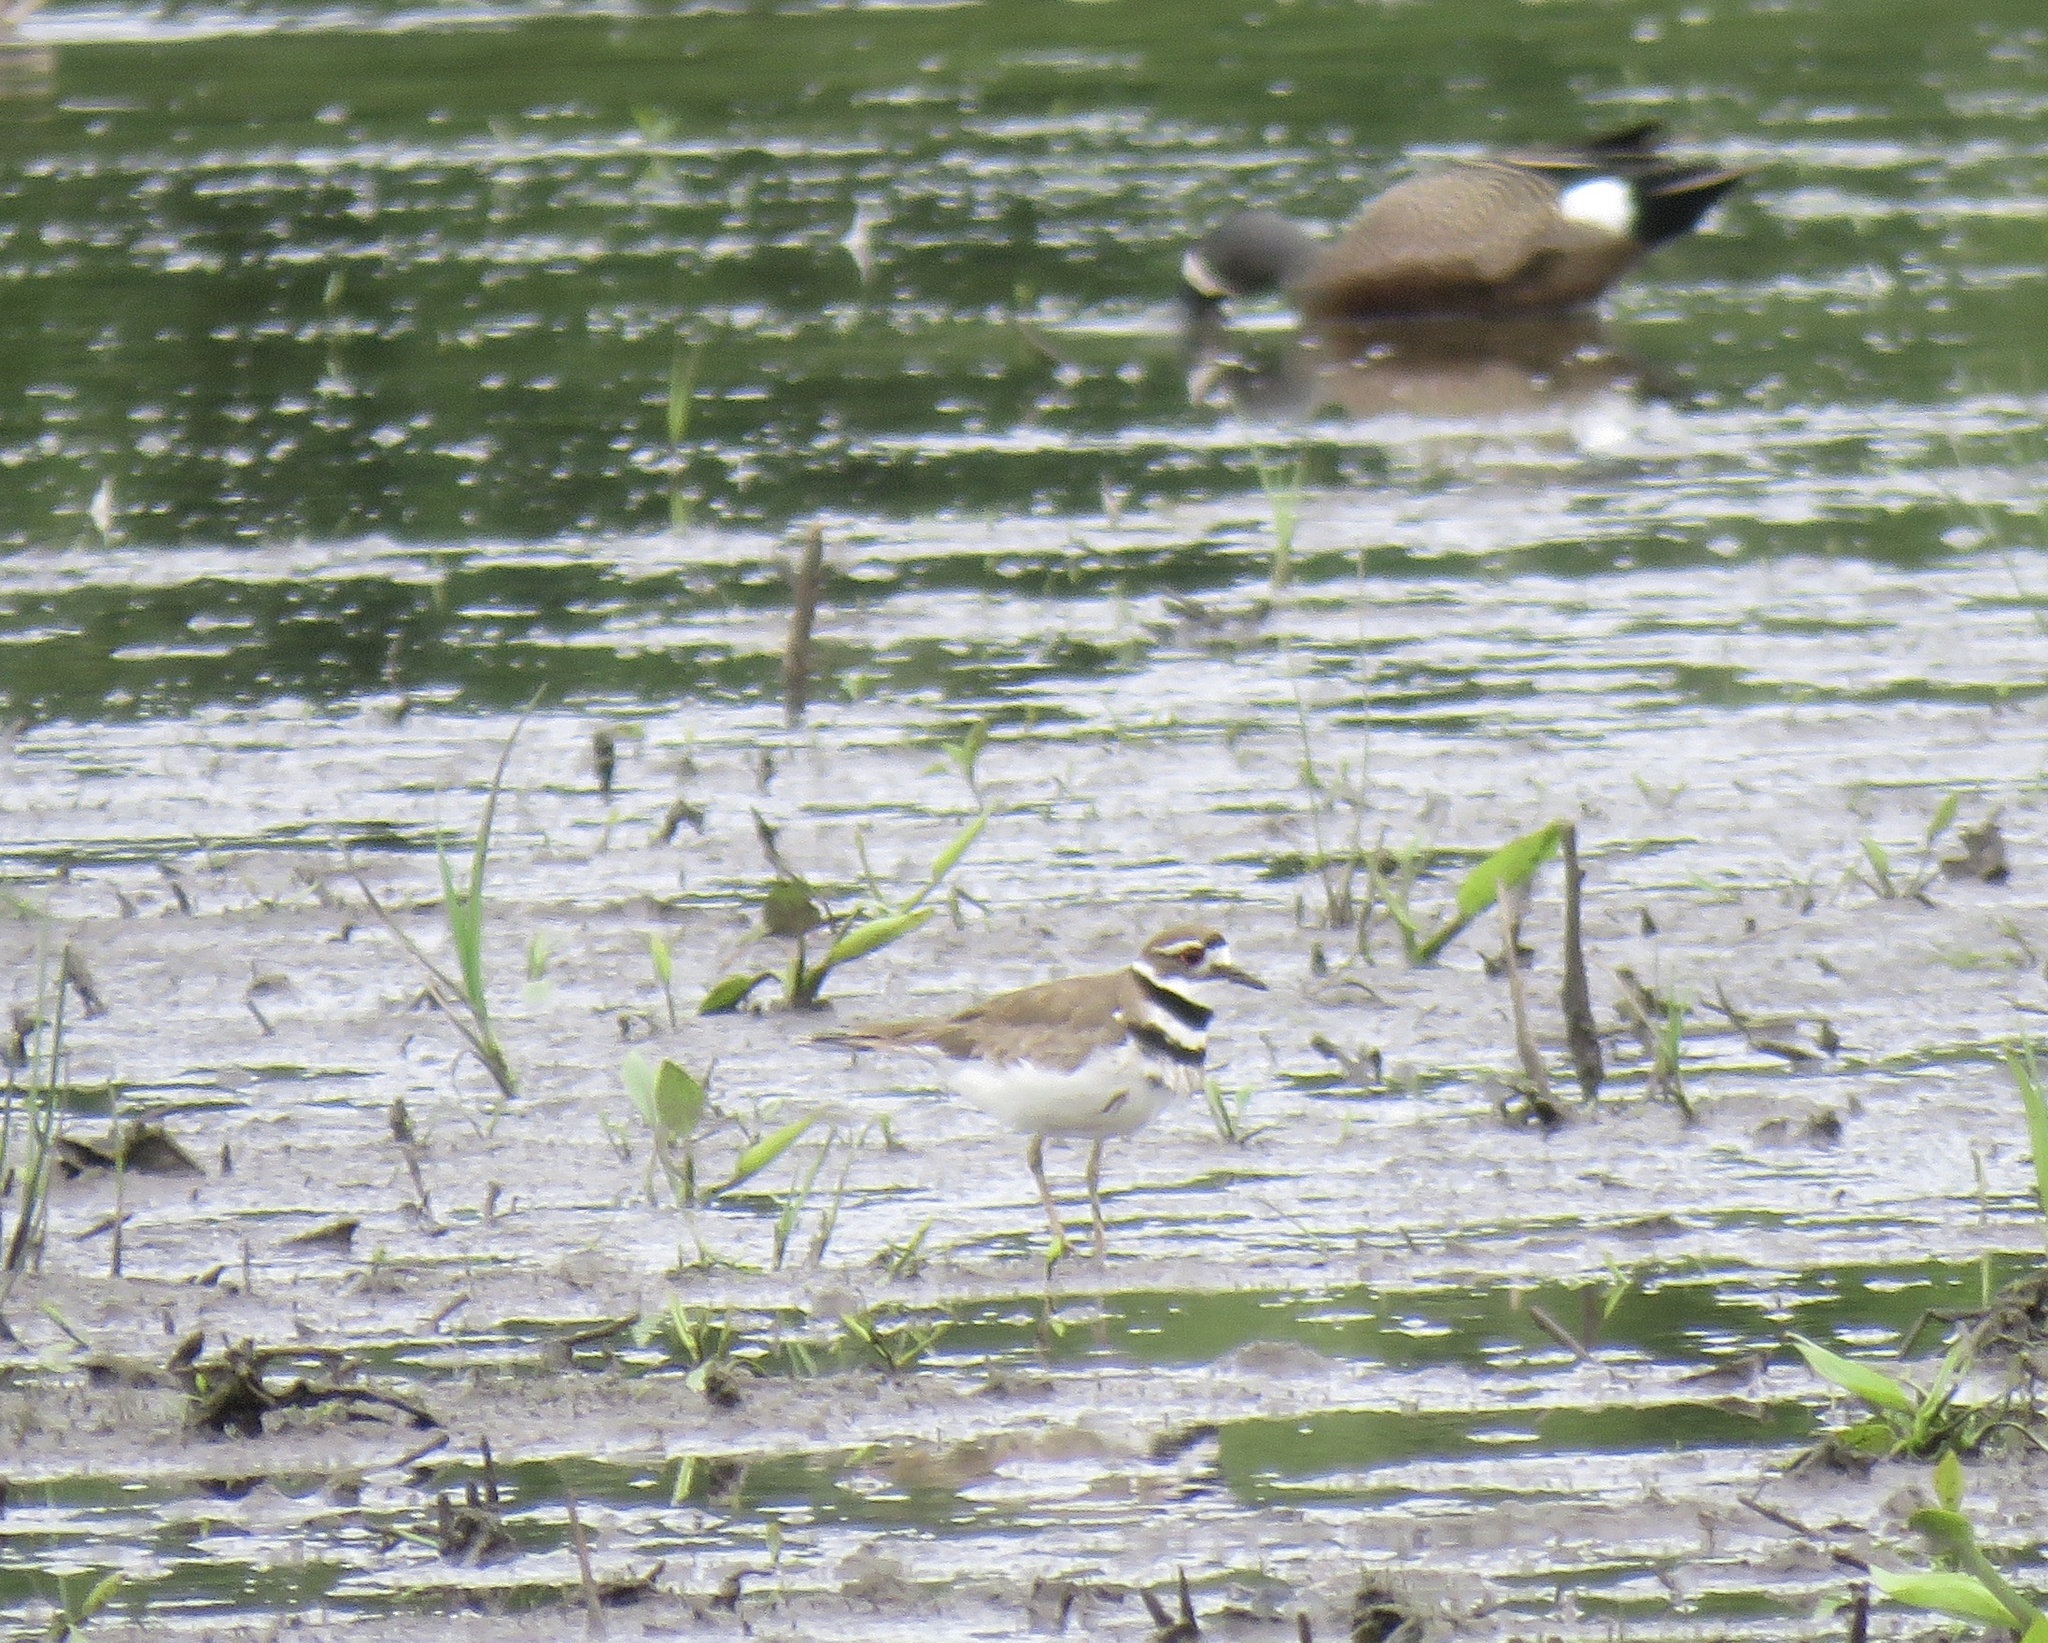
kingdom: Animalia
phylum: Chordata
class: Aves
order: Charadriiformes
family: Charadriidae
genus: Charadrius
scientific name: Charadrius vociferus
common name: Killdeer
